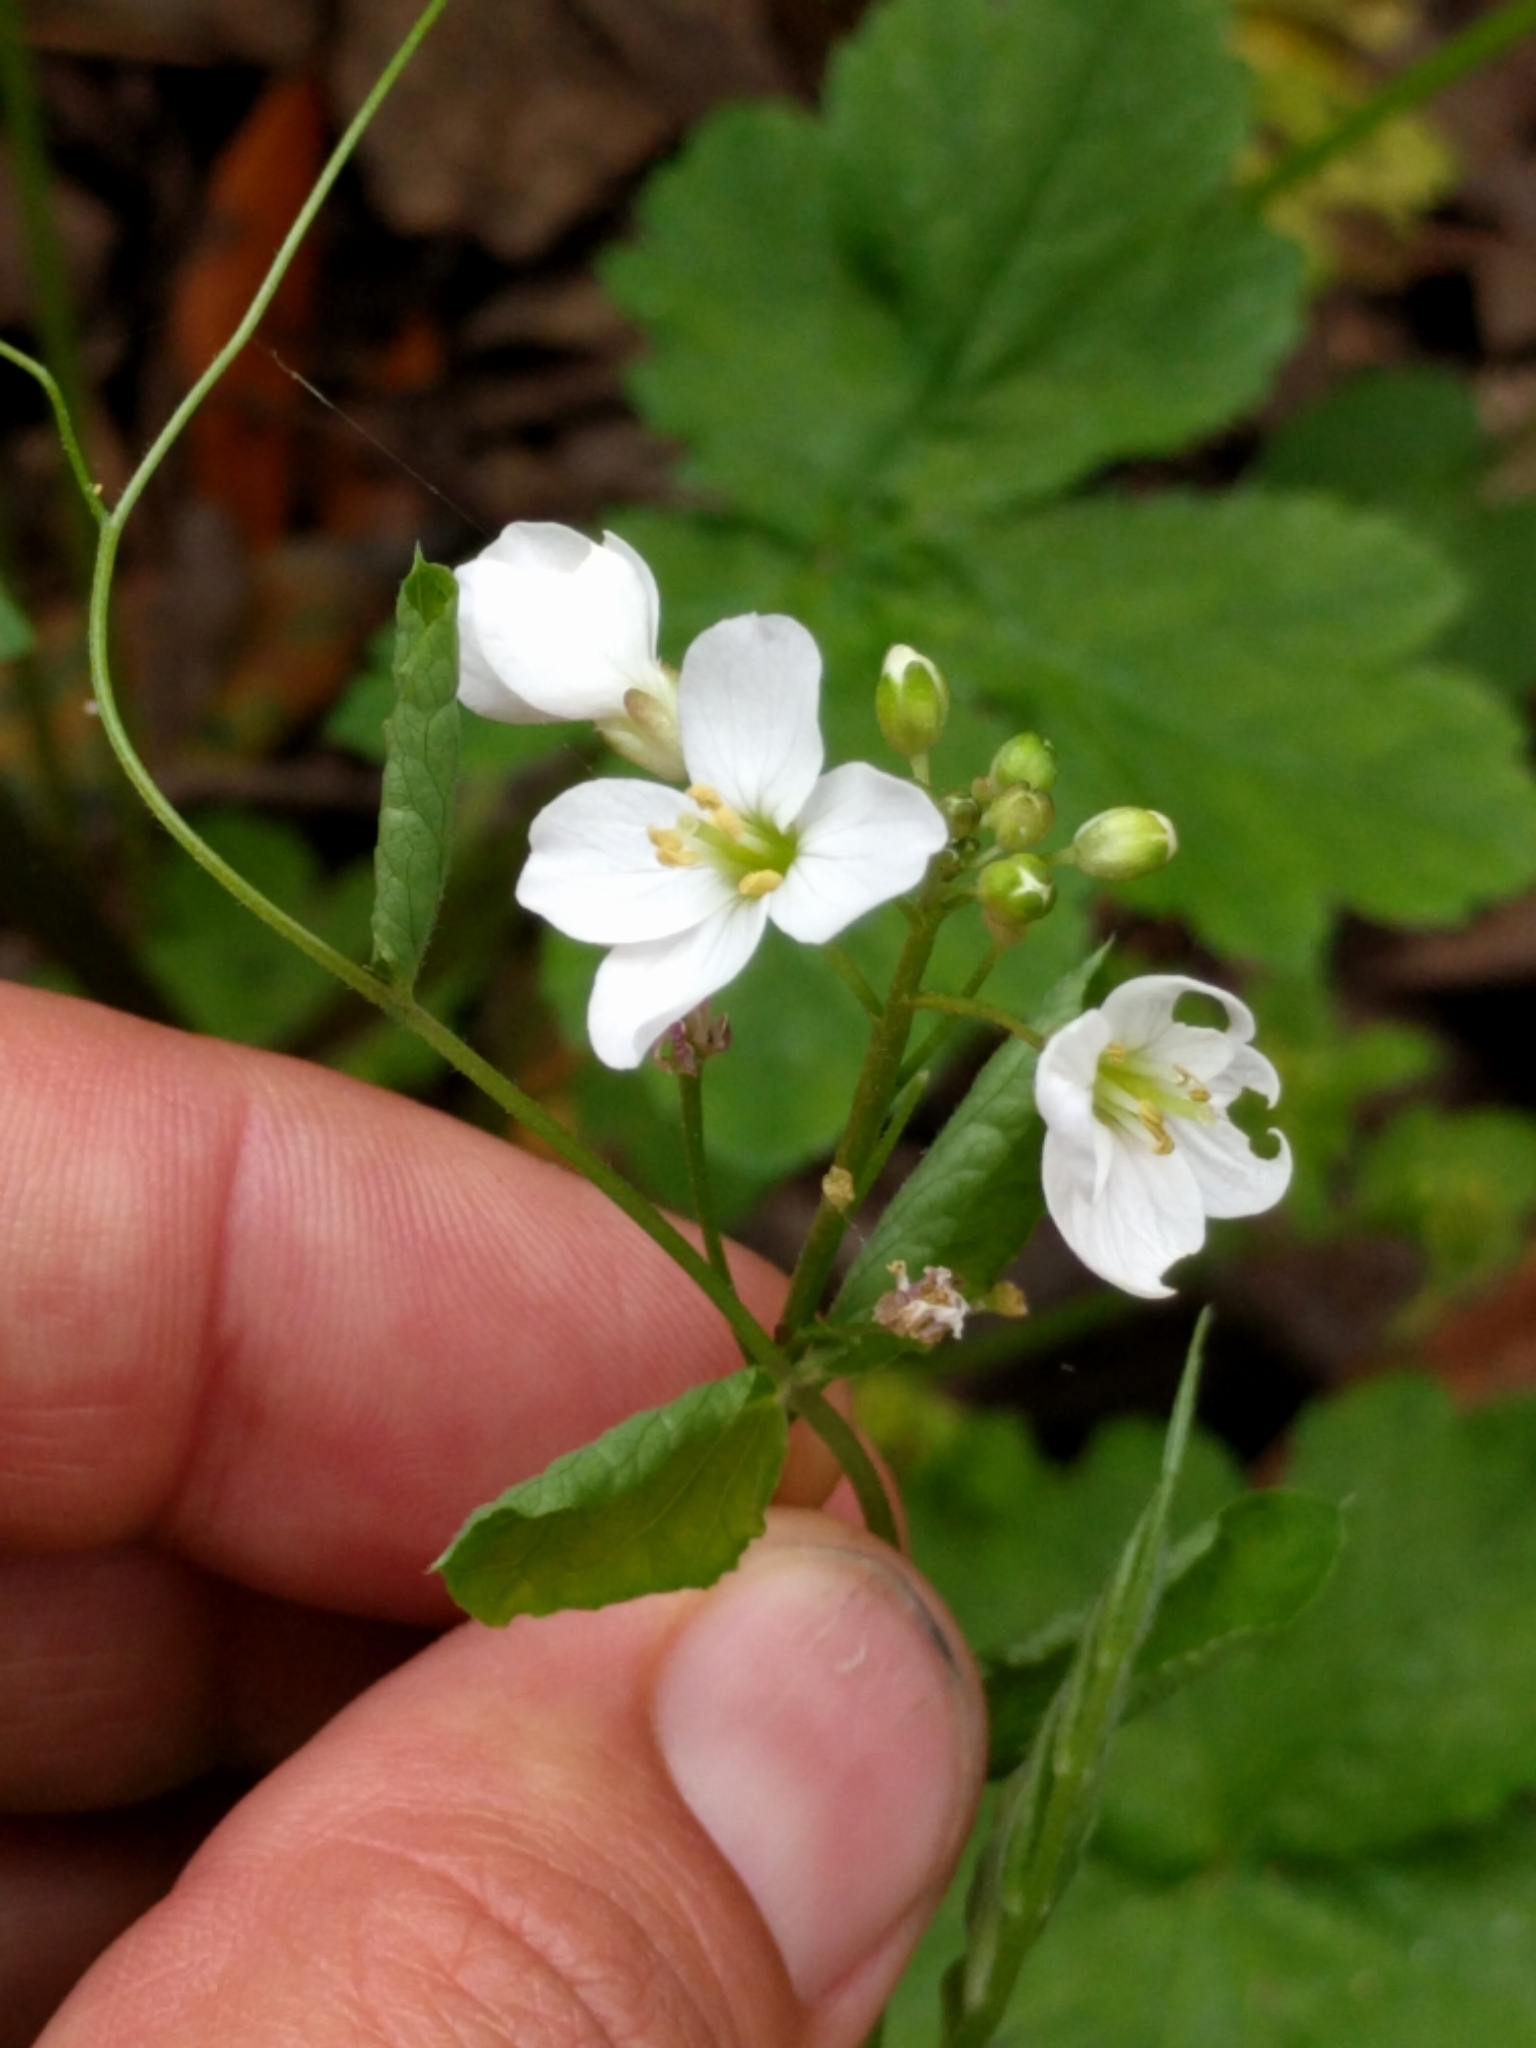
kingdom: Plantae
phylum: Tracheophyta
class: Magnoliopsida
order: Brassicales
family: Brassicaceae
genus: Cardamine
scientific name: Cardamine californica
